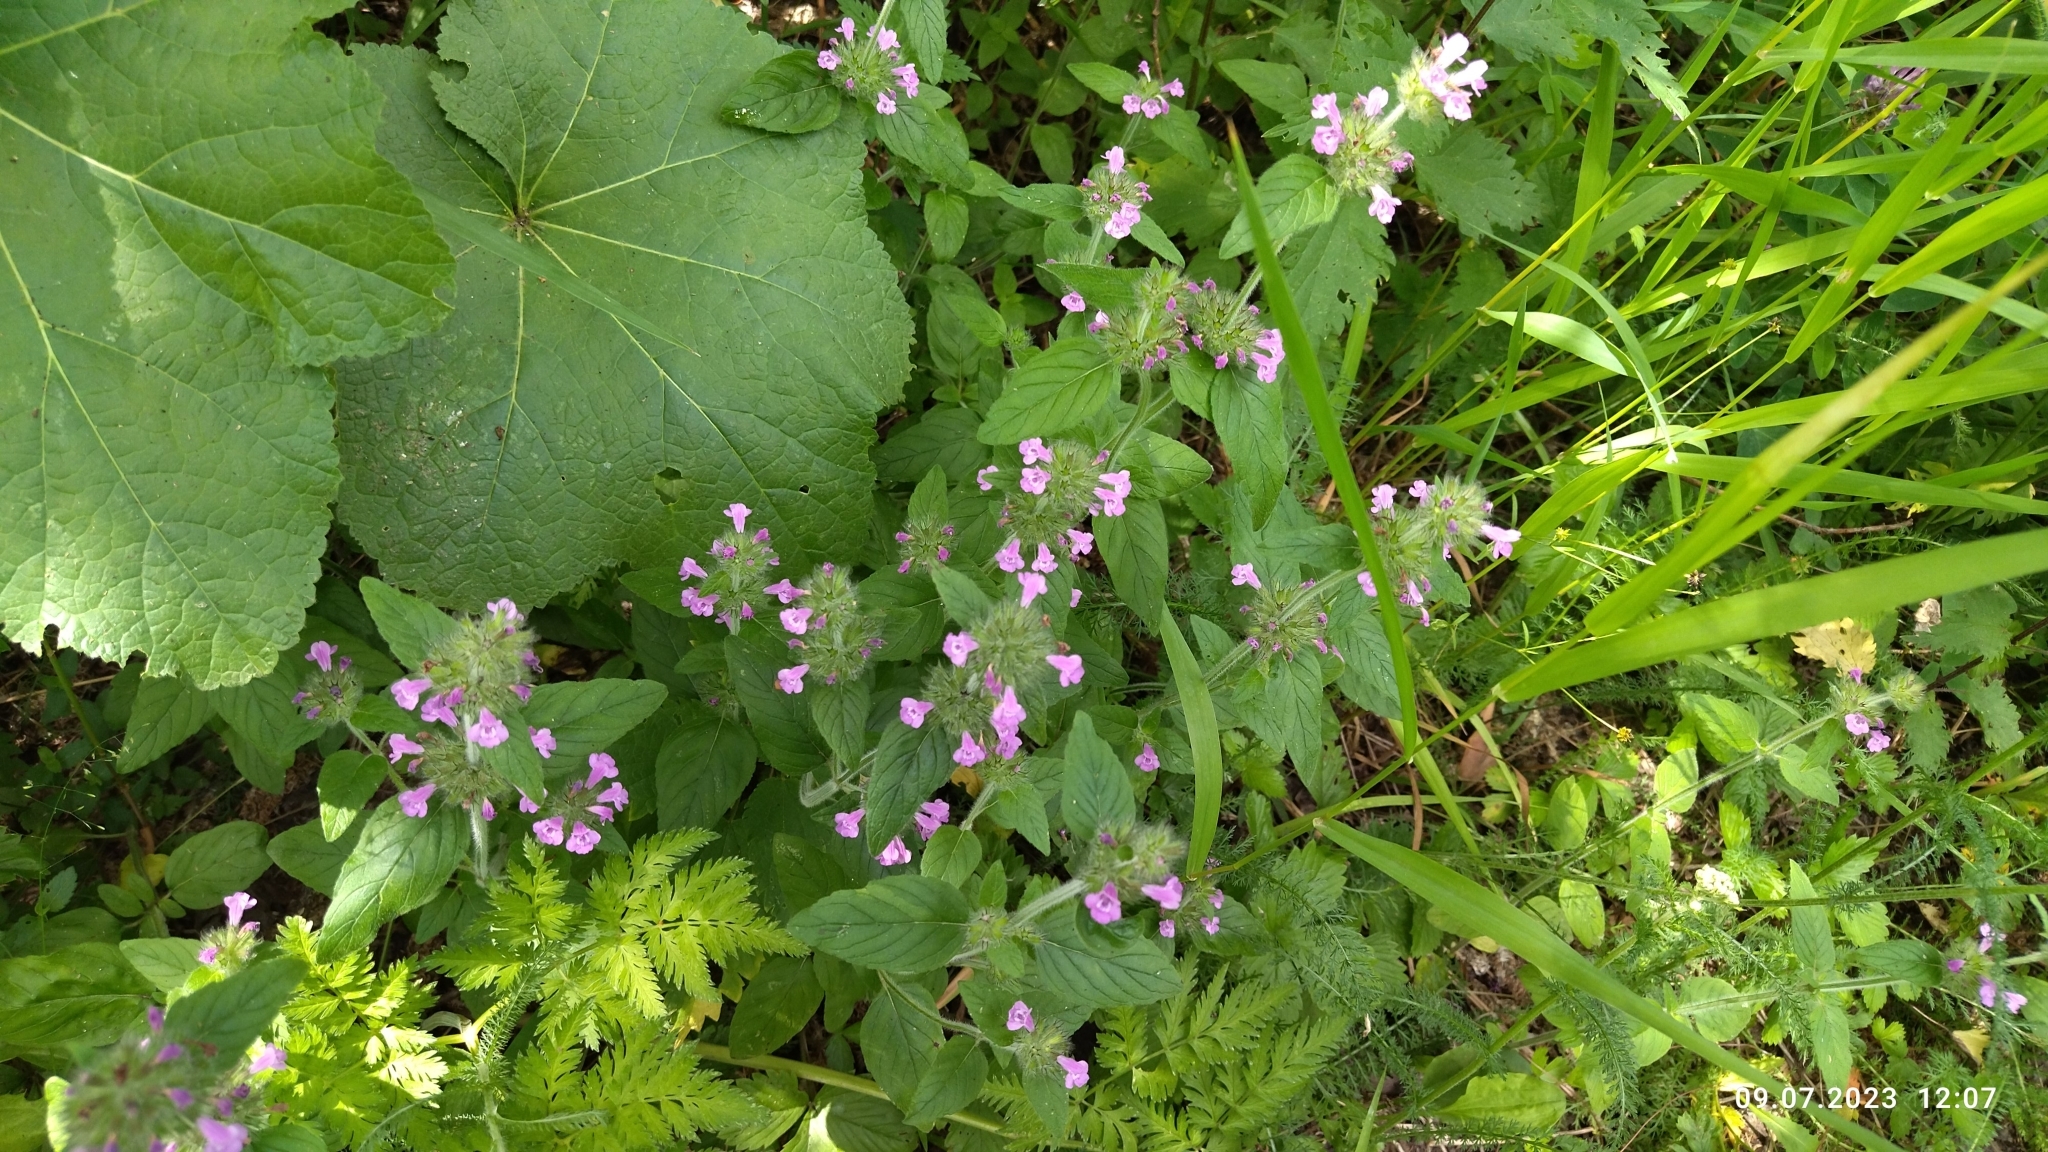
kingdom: Plantae
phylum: Tracheophyta
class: Magnoliopsida
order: Lamiales
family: Lamiaceae
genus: Clinopodium
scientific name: Clinopodium vulgare
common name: Wild basil
